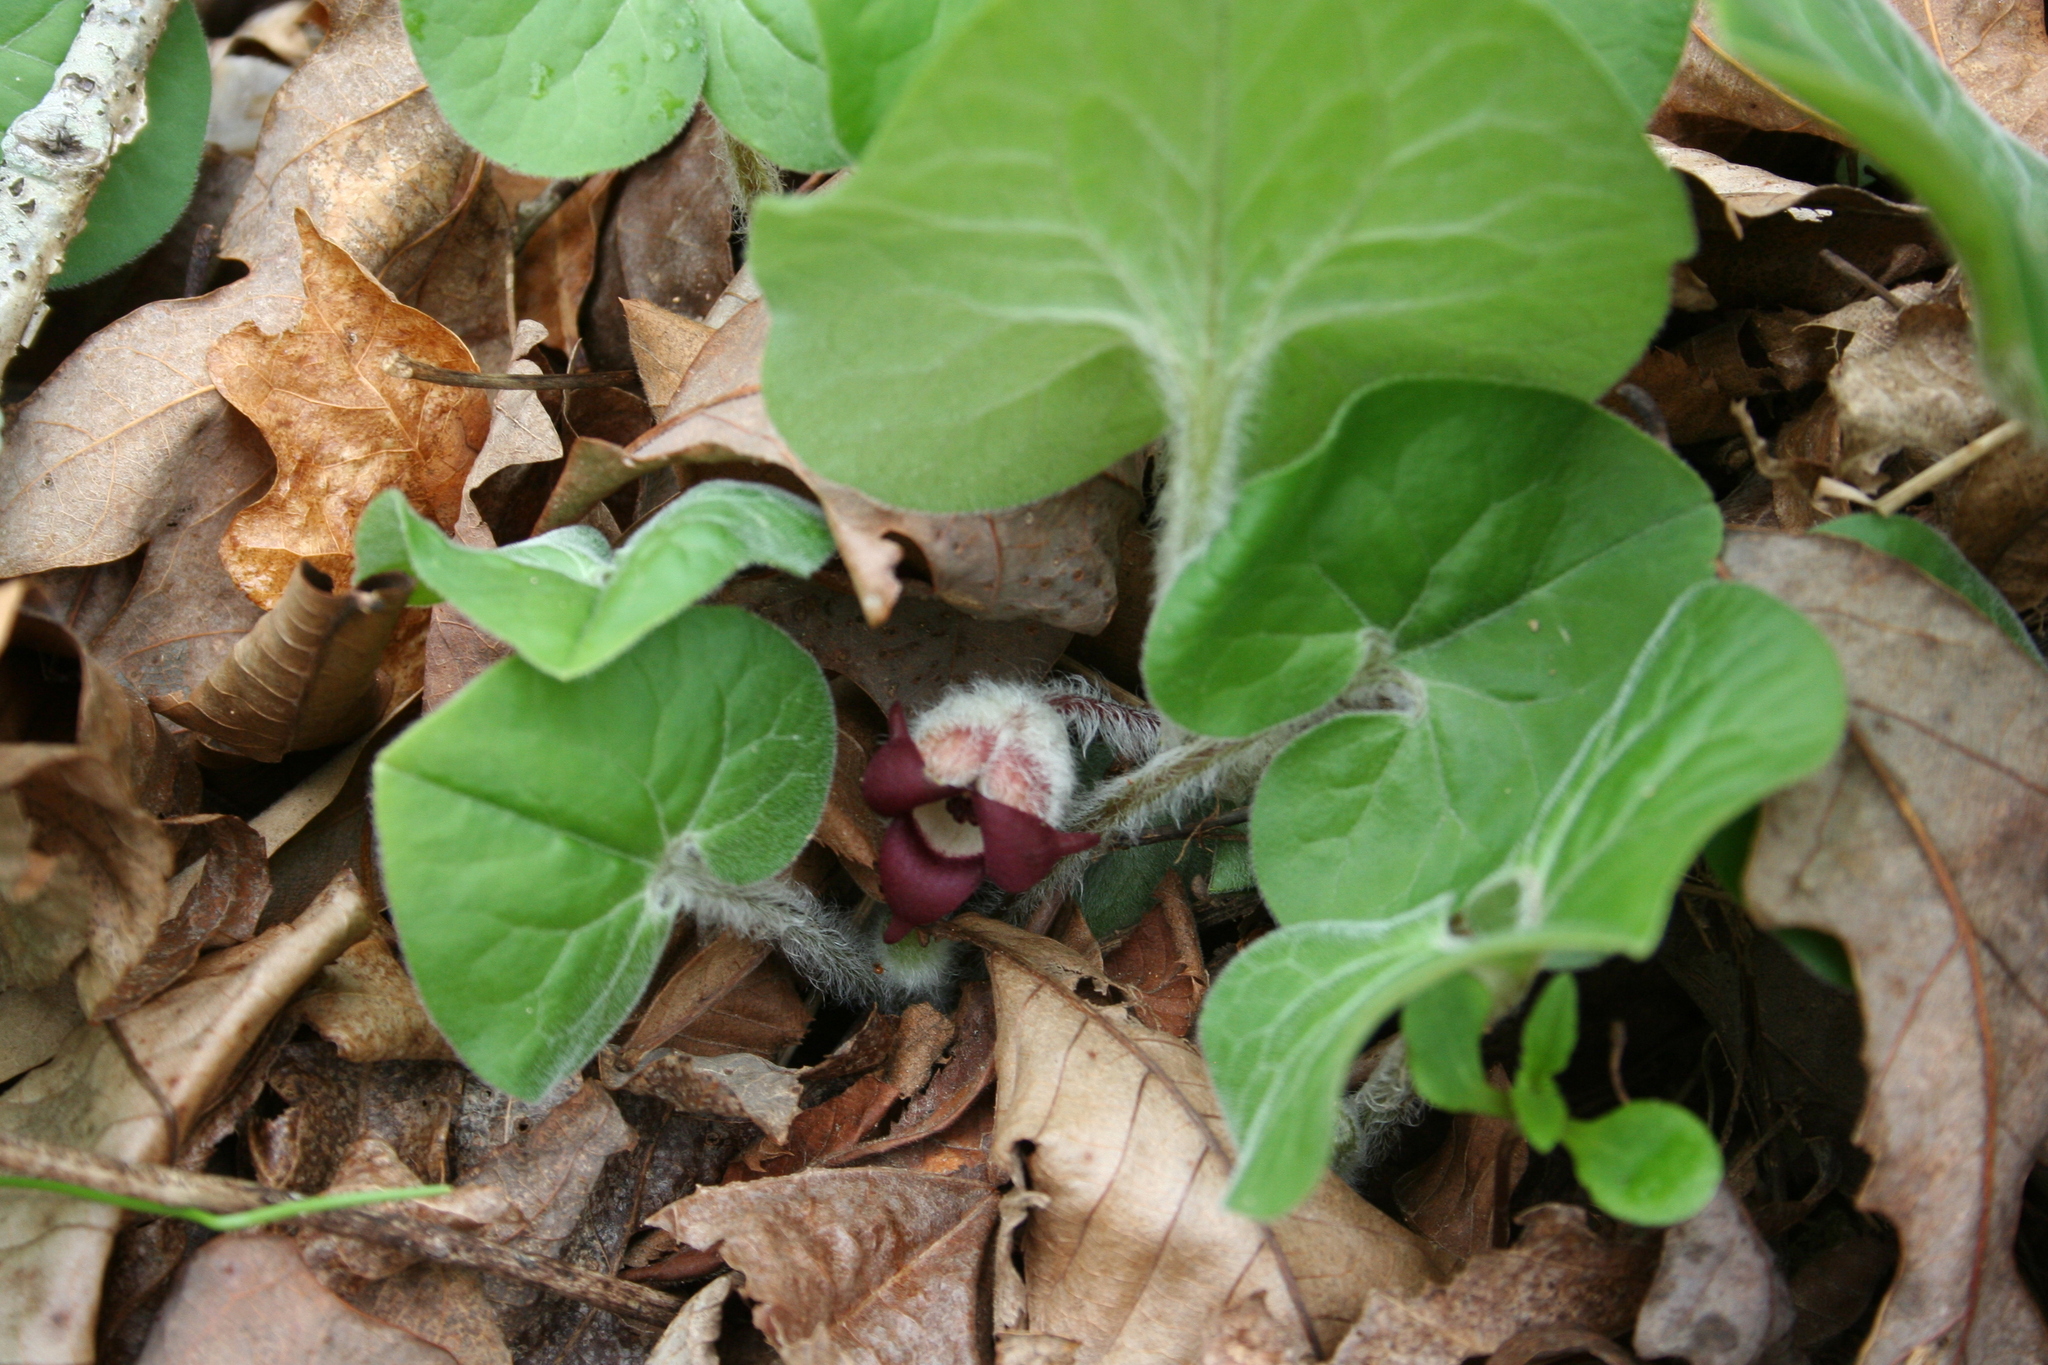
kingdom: Plantae
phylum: Tracheophyta
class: Magnoliopsida
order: Piperales
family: Aristolochiaceae
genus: Asarum
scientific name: Asarum canadense
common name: Wild ginger
